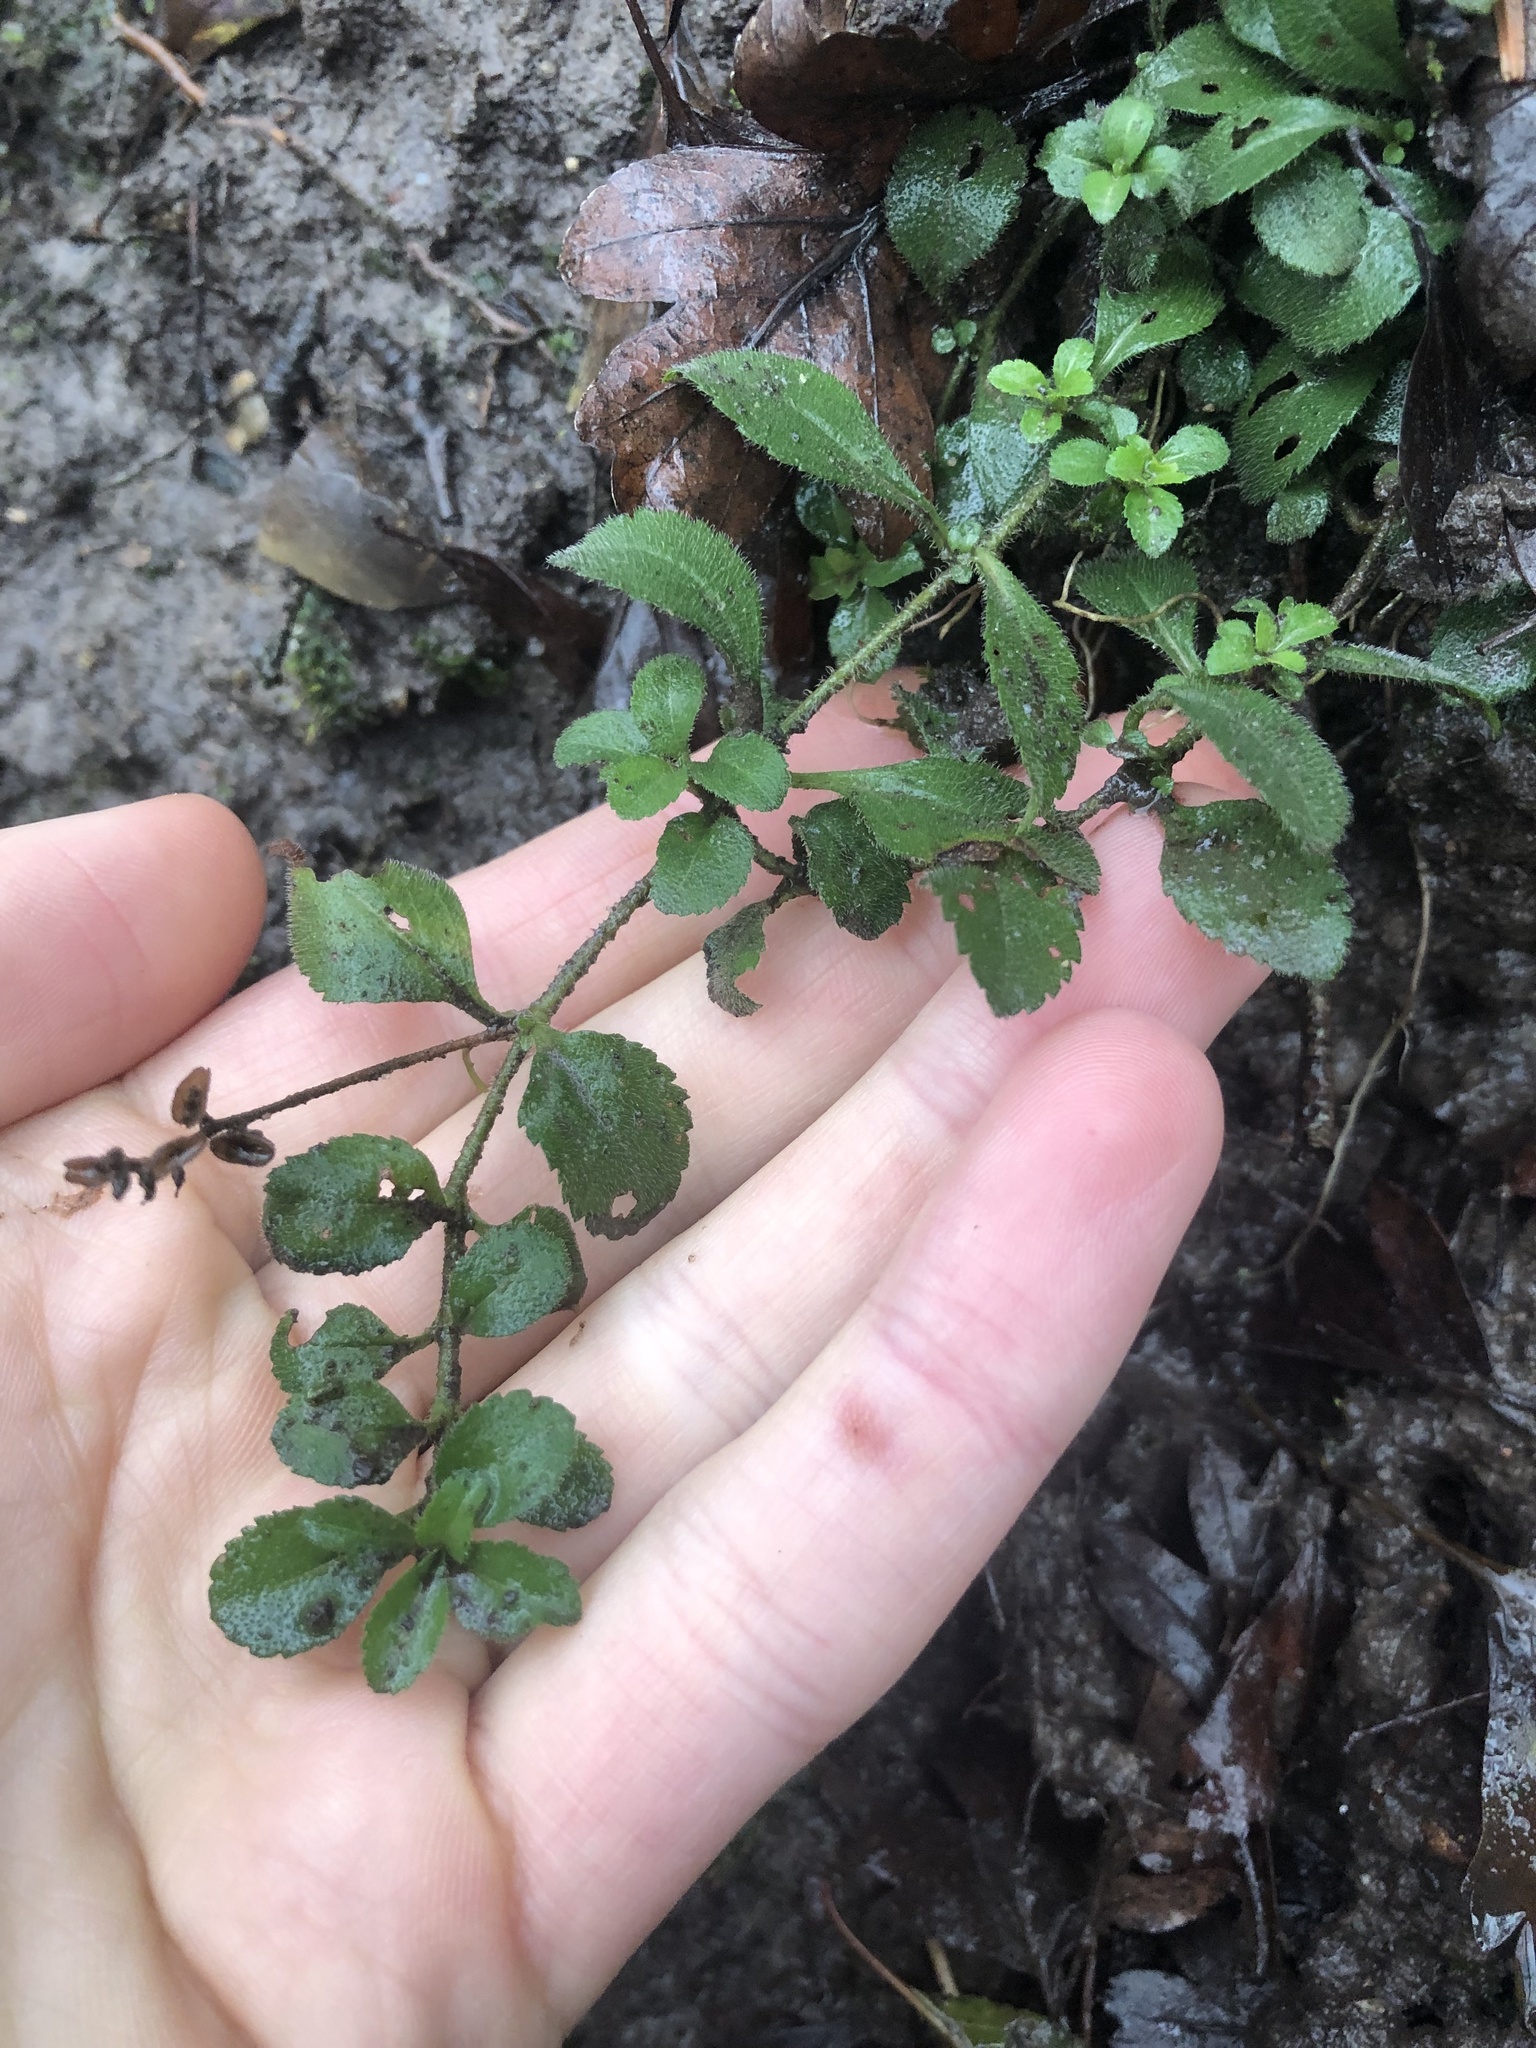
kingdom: Plantae
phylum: Tracheophyta
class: Magnoliopsida
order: Lamiales
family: Plantaginaceae
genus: Veronica
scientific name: Veronica officinalis
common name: Common speedwell
